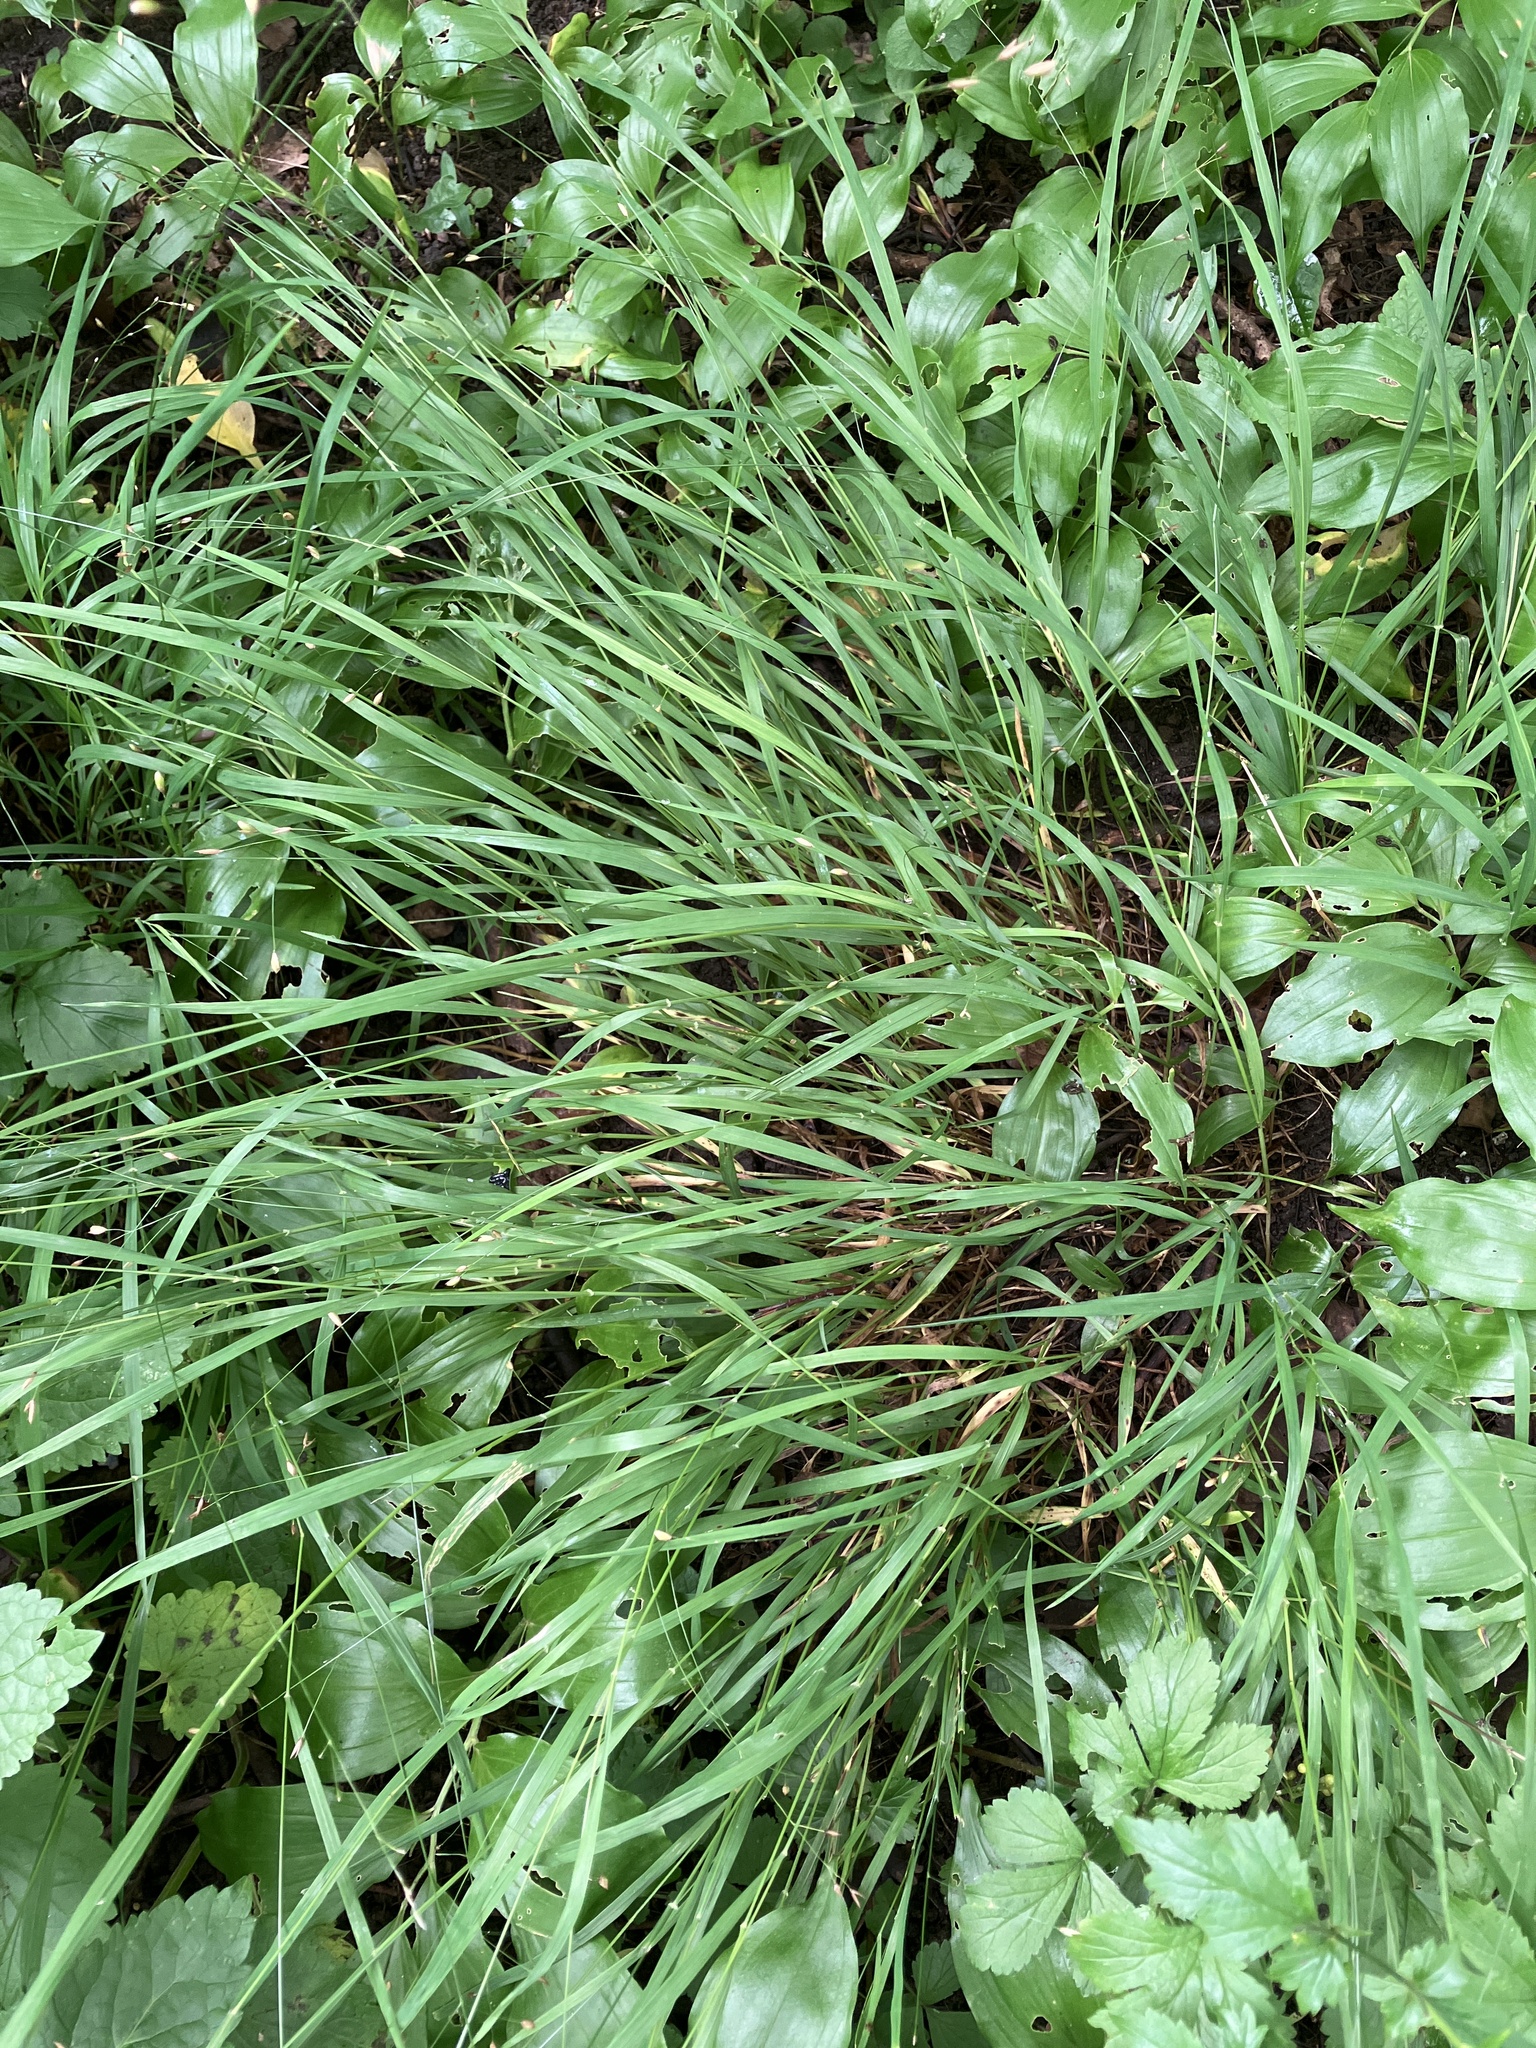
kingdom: Plantae
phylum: Tracheophyta
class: Liliopsida
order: Poales
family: Poaceae
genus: Melica
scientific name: Melica uniflora
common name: Wood melick
